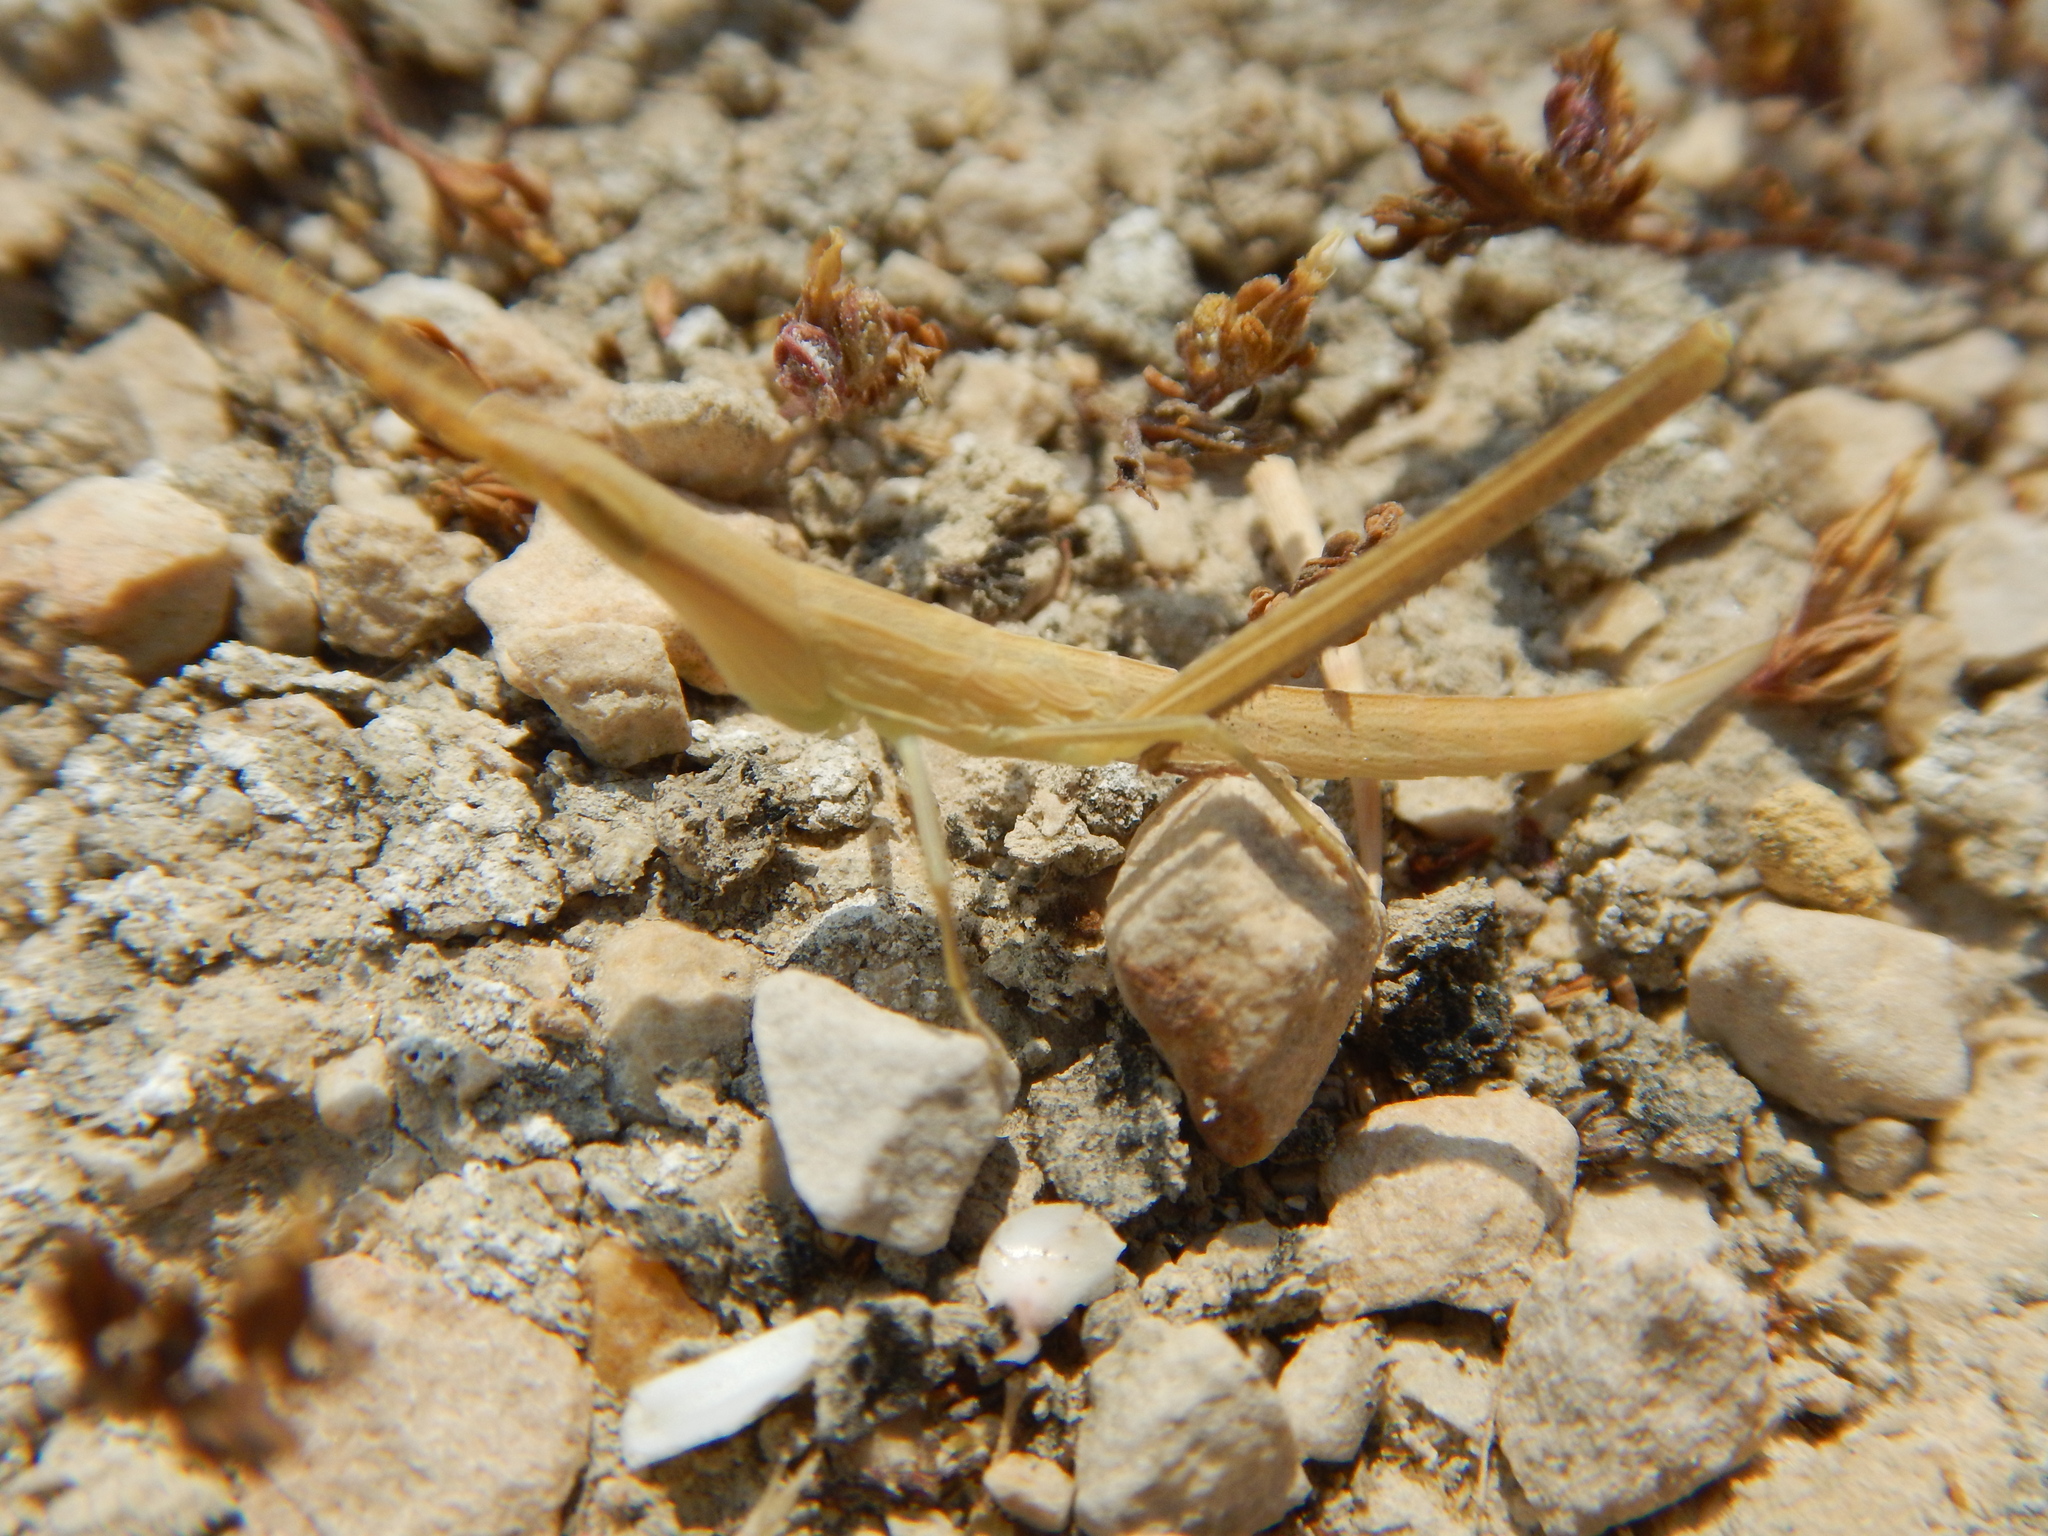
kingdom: Animalia
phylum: Arthropoda
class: Insecta
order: Orthoptera
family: Acrididae
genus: Acrida
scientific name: Acrida ungarica
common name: Common cone-headed grasshopper
